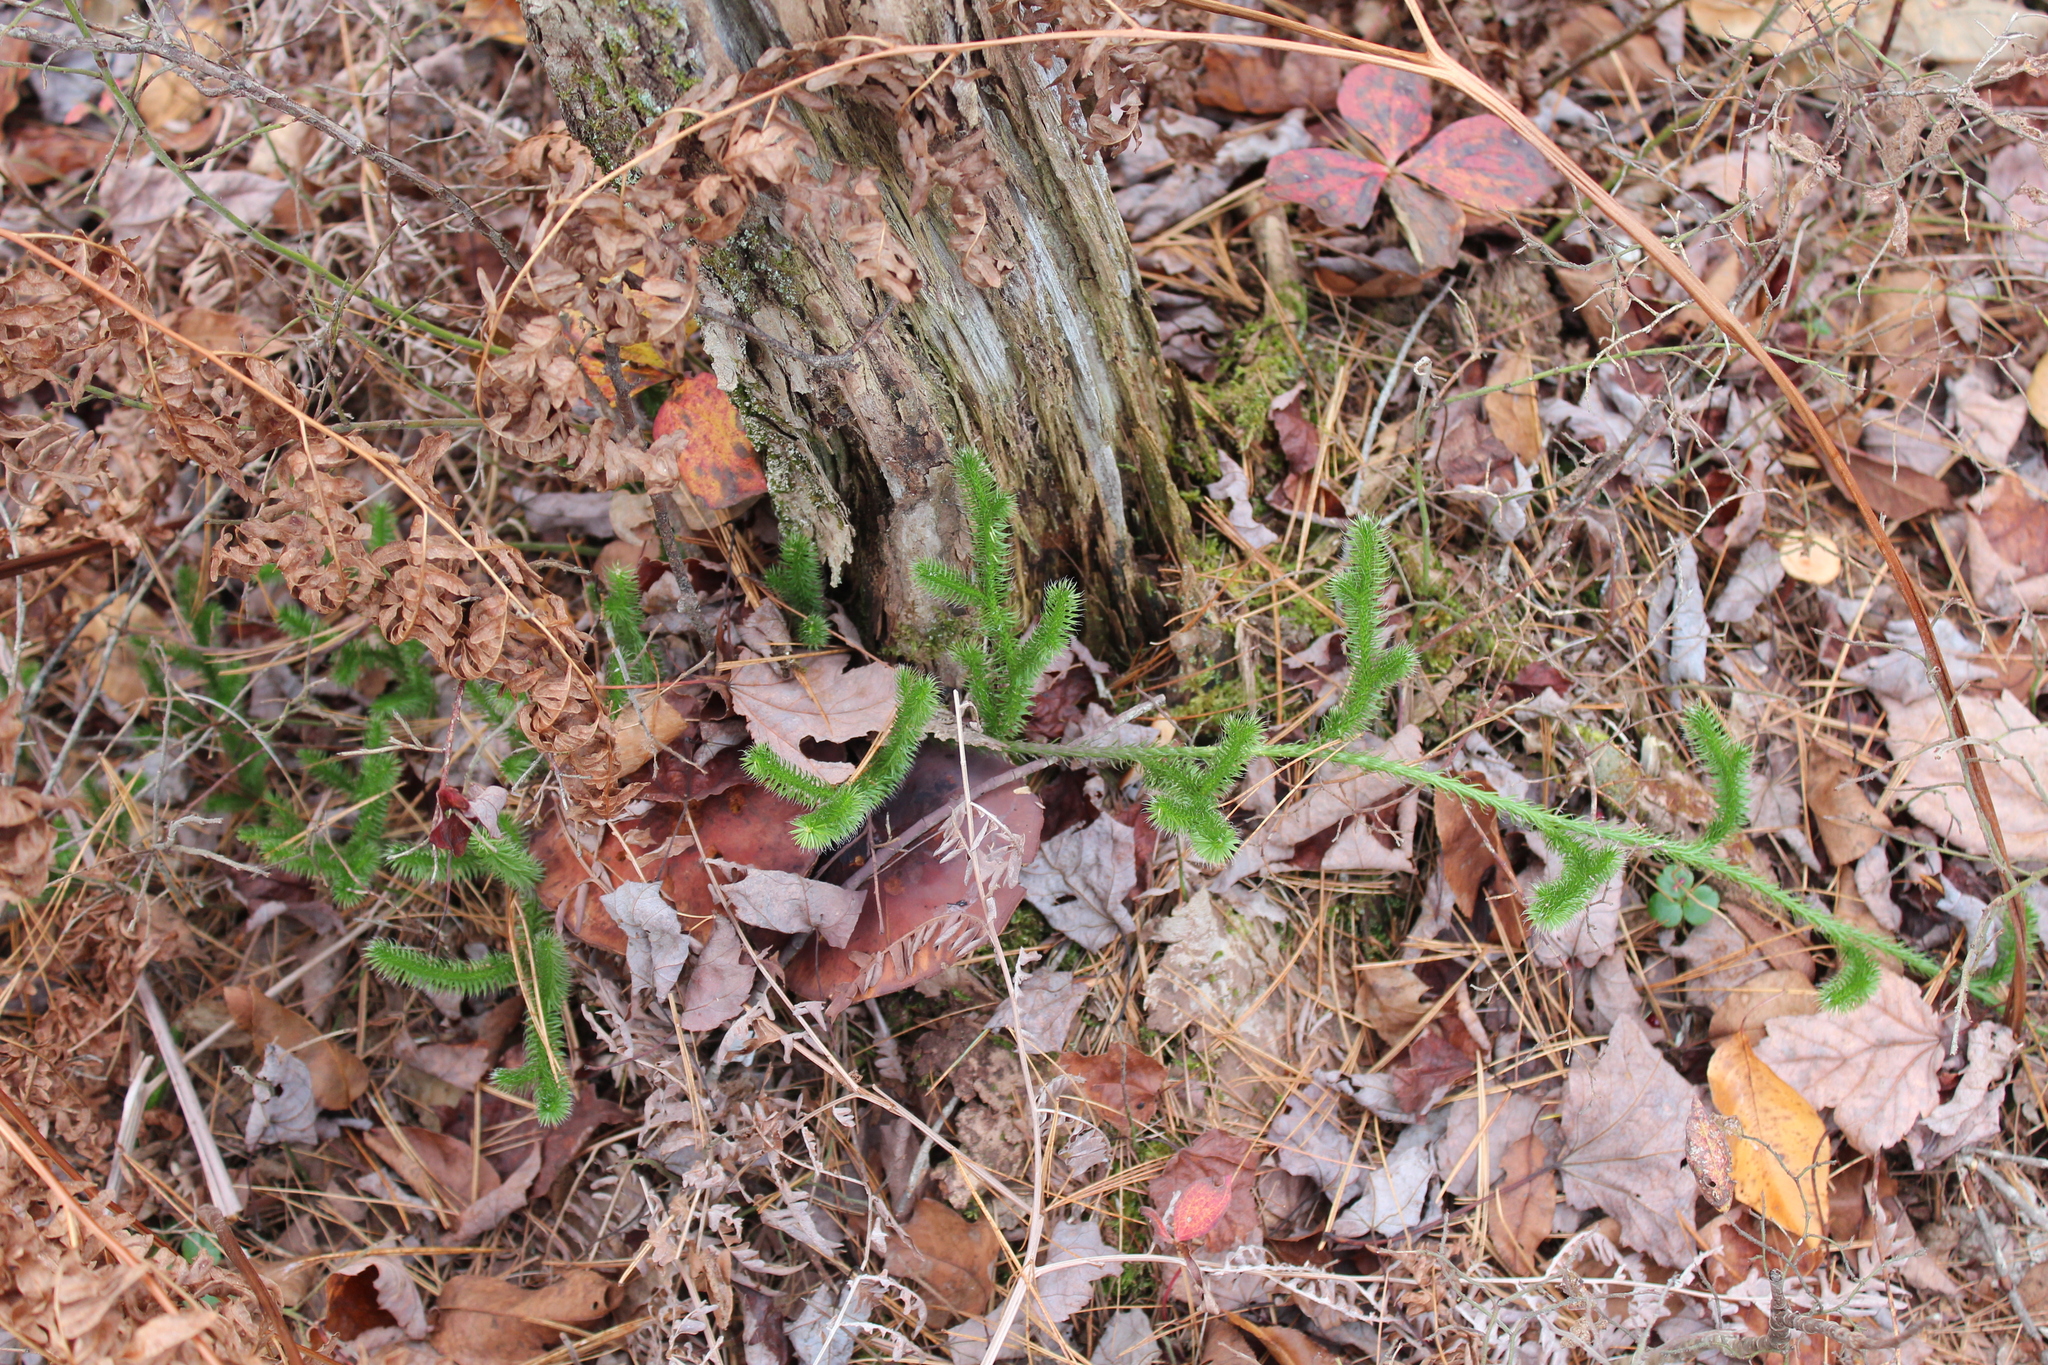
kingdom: Plantae
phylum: Tracheophyta
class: Lycopodiopsida
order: Lycopodiales
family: Lycopodiaceae
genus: Lycopodium
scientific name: Lycopodium clavatum
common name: Stag's-horn clubmoss
